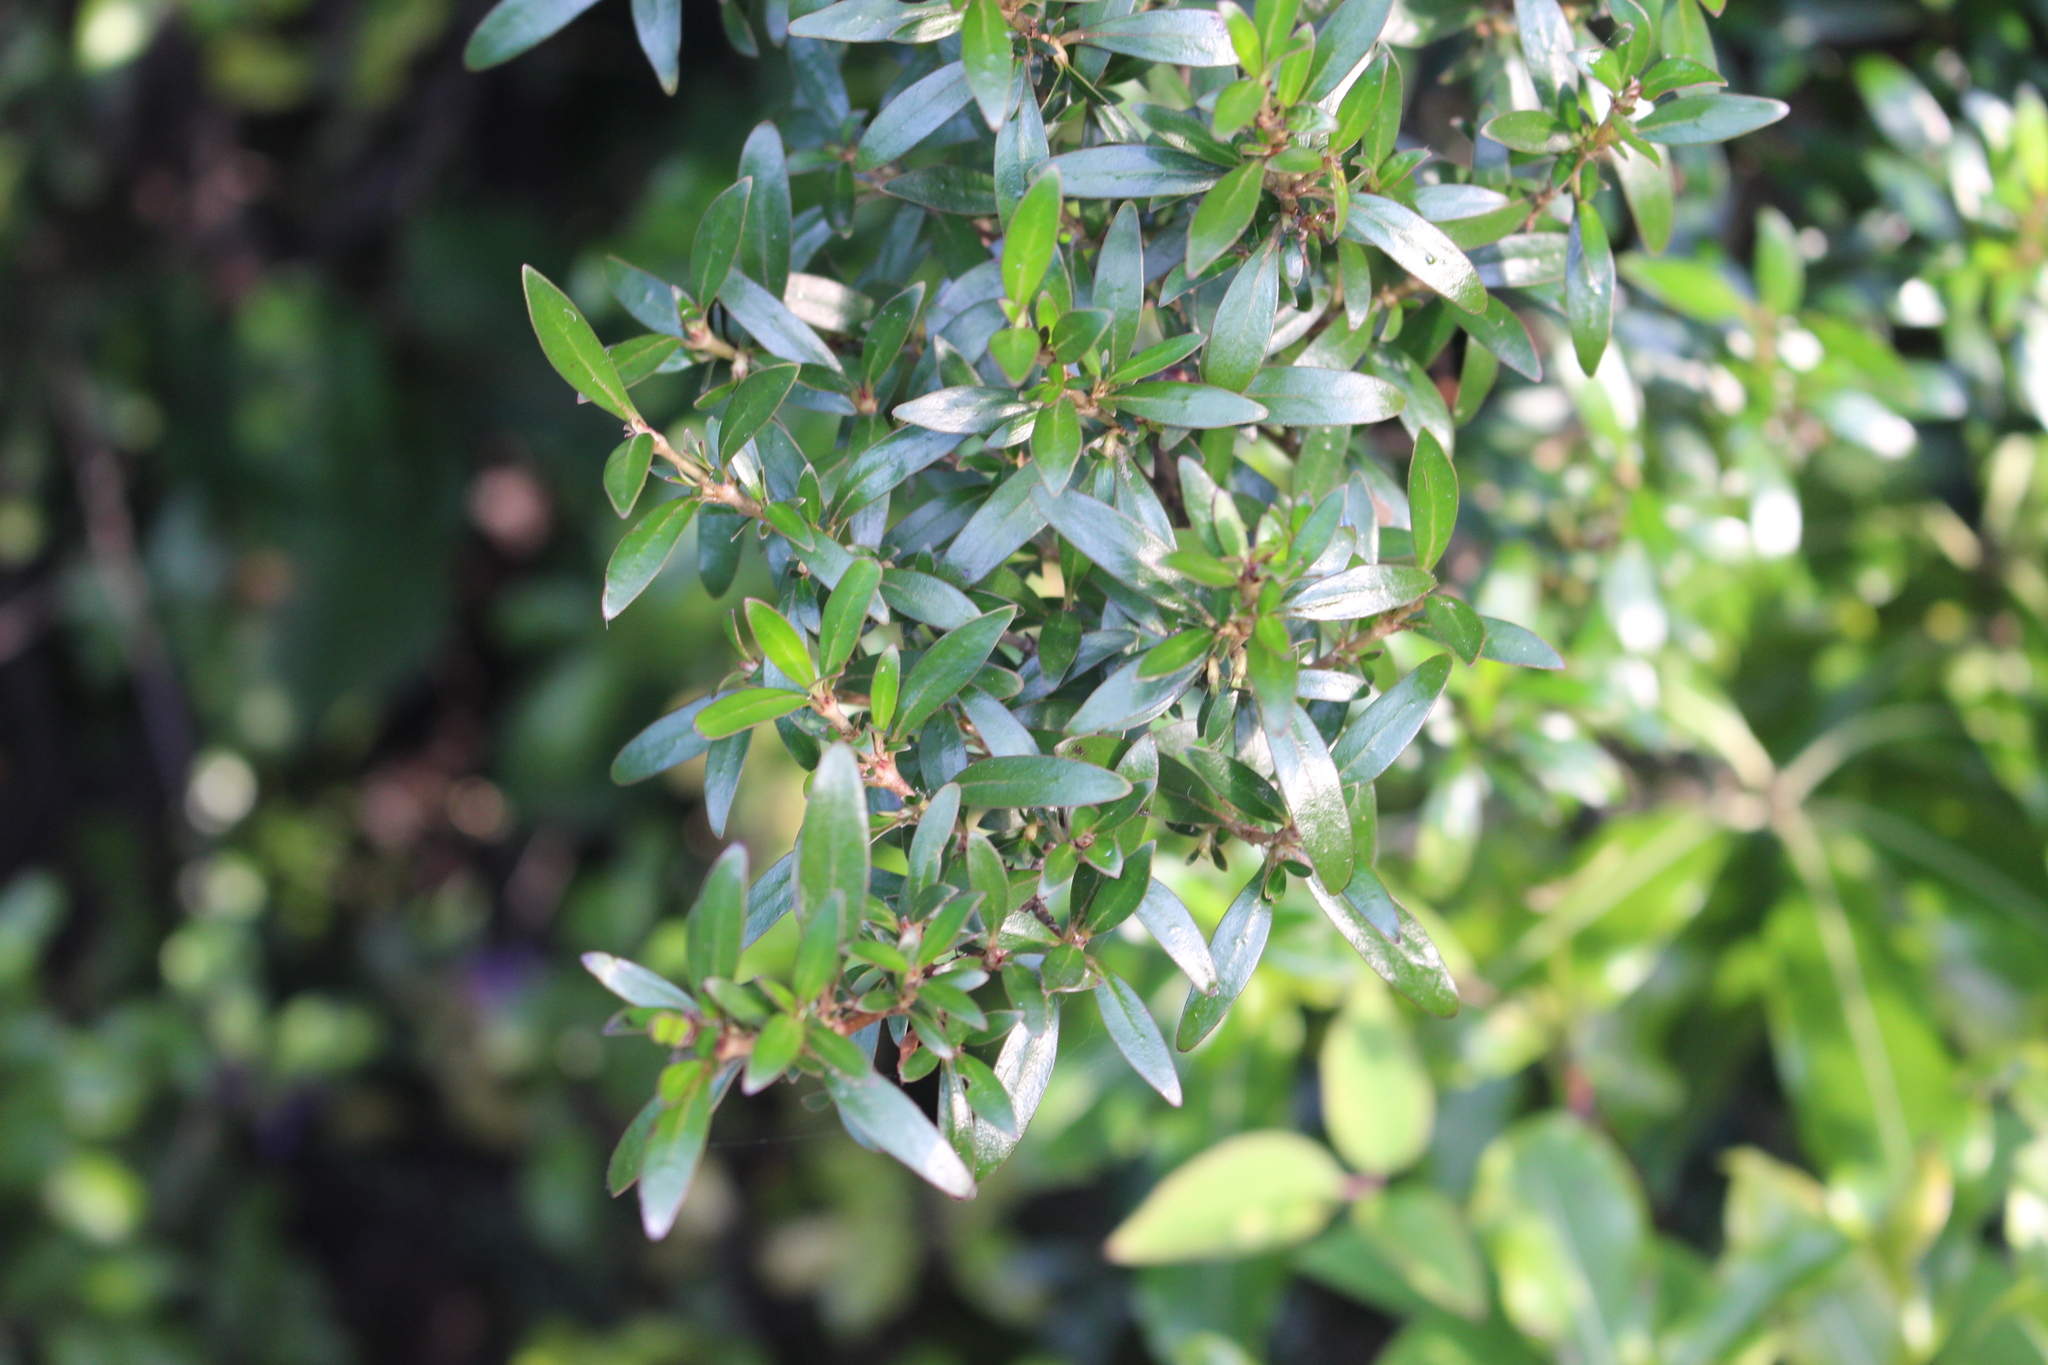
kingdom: Plantae
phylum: Tracheophyta
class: Magnoliopsida
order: Gentianales
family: Rubiaceae
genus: Coprosma
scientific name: Coprosma cunninghamii
